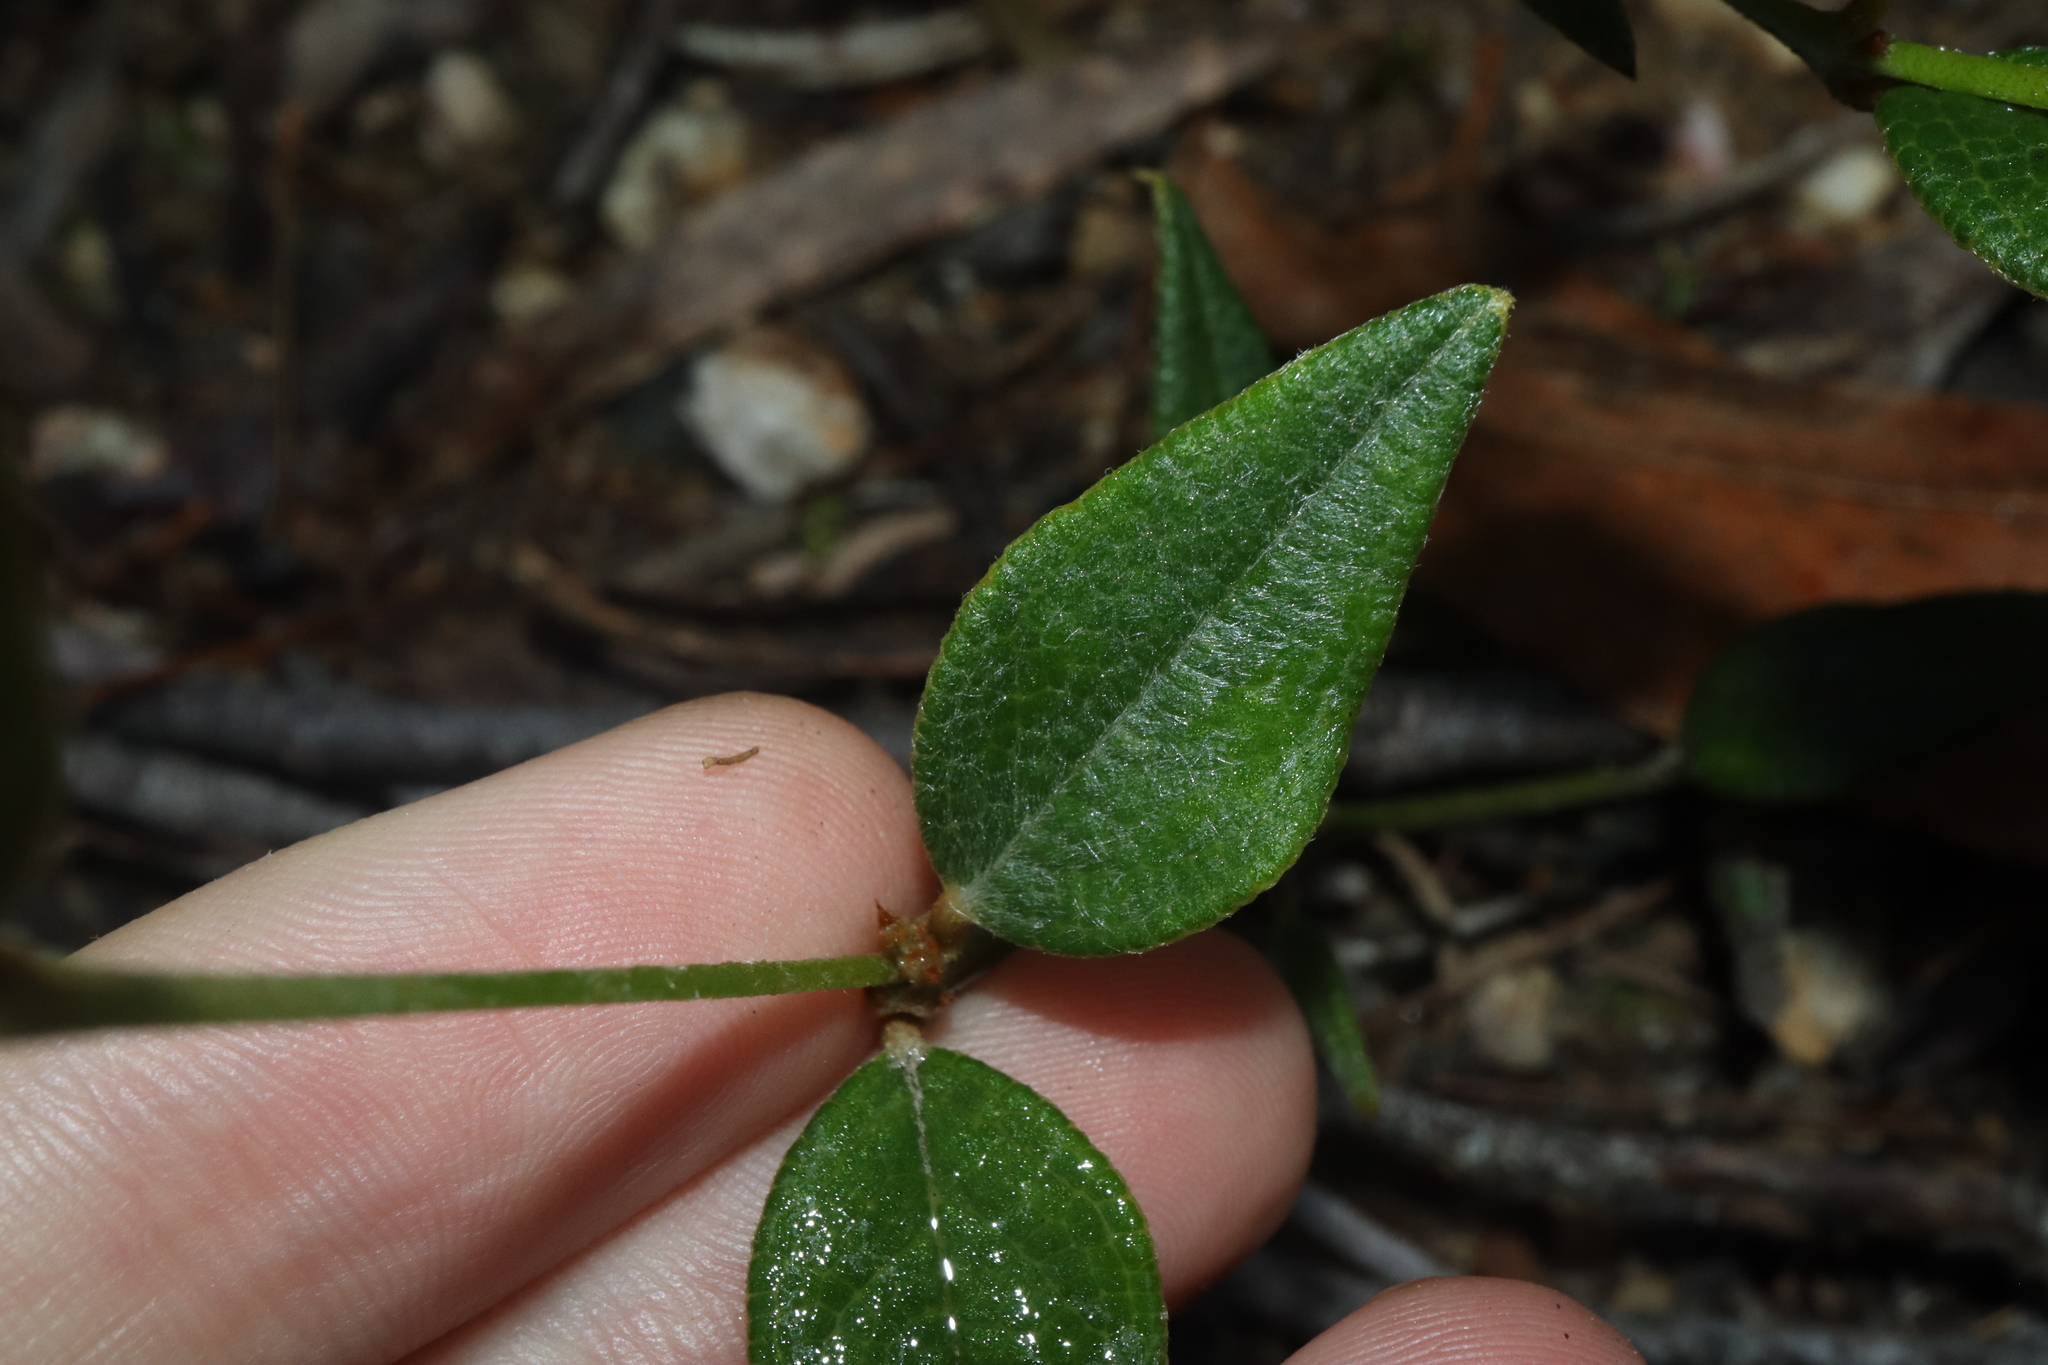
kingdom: Plantae
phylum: Tracheophyta
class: Magnoliopsida
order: Fabales
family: Fabaceae
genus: Mirbelia
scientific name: Mirbelia platylobioides
